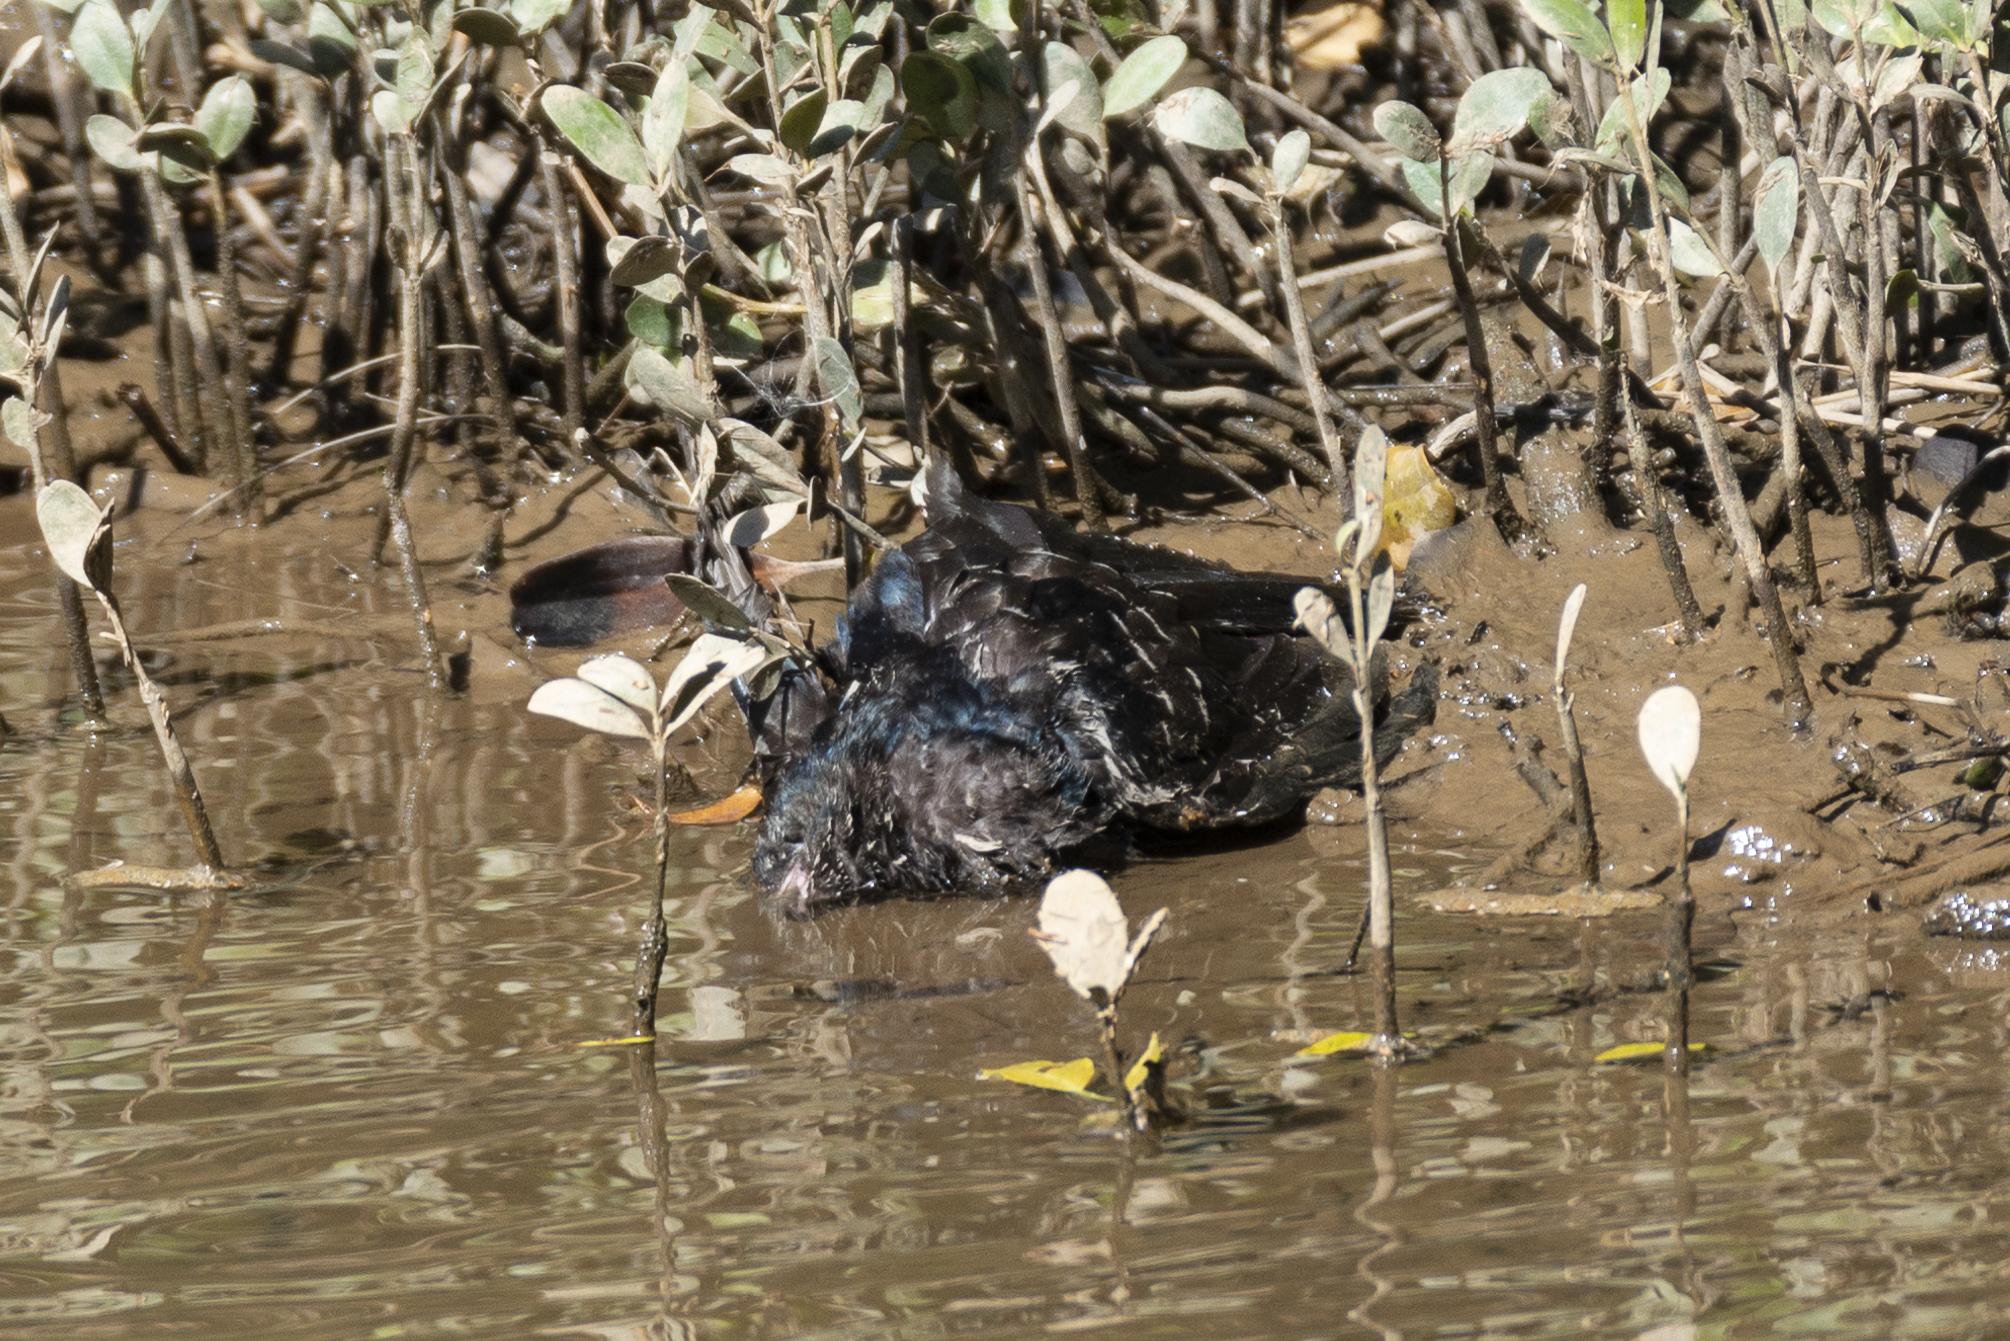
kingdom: Animalia
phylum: Chordata
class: Aves
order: Cuculiformes
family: Cuculidae
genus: Eudynamys
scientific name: Eudynamys scolopaceus
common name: Asian koel
